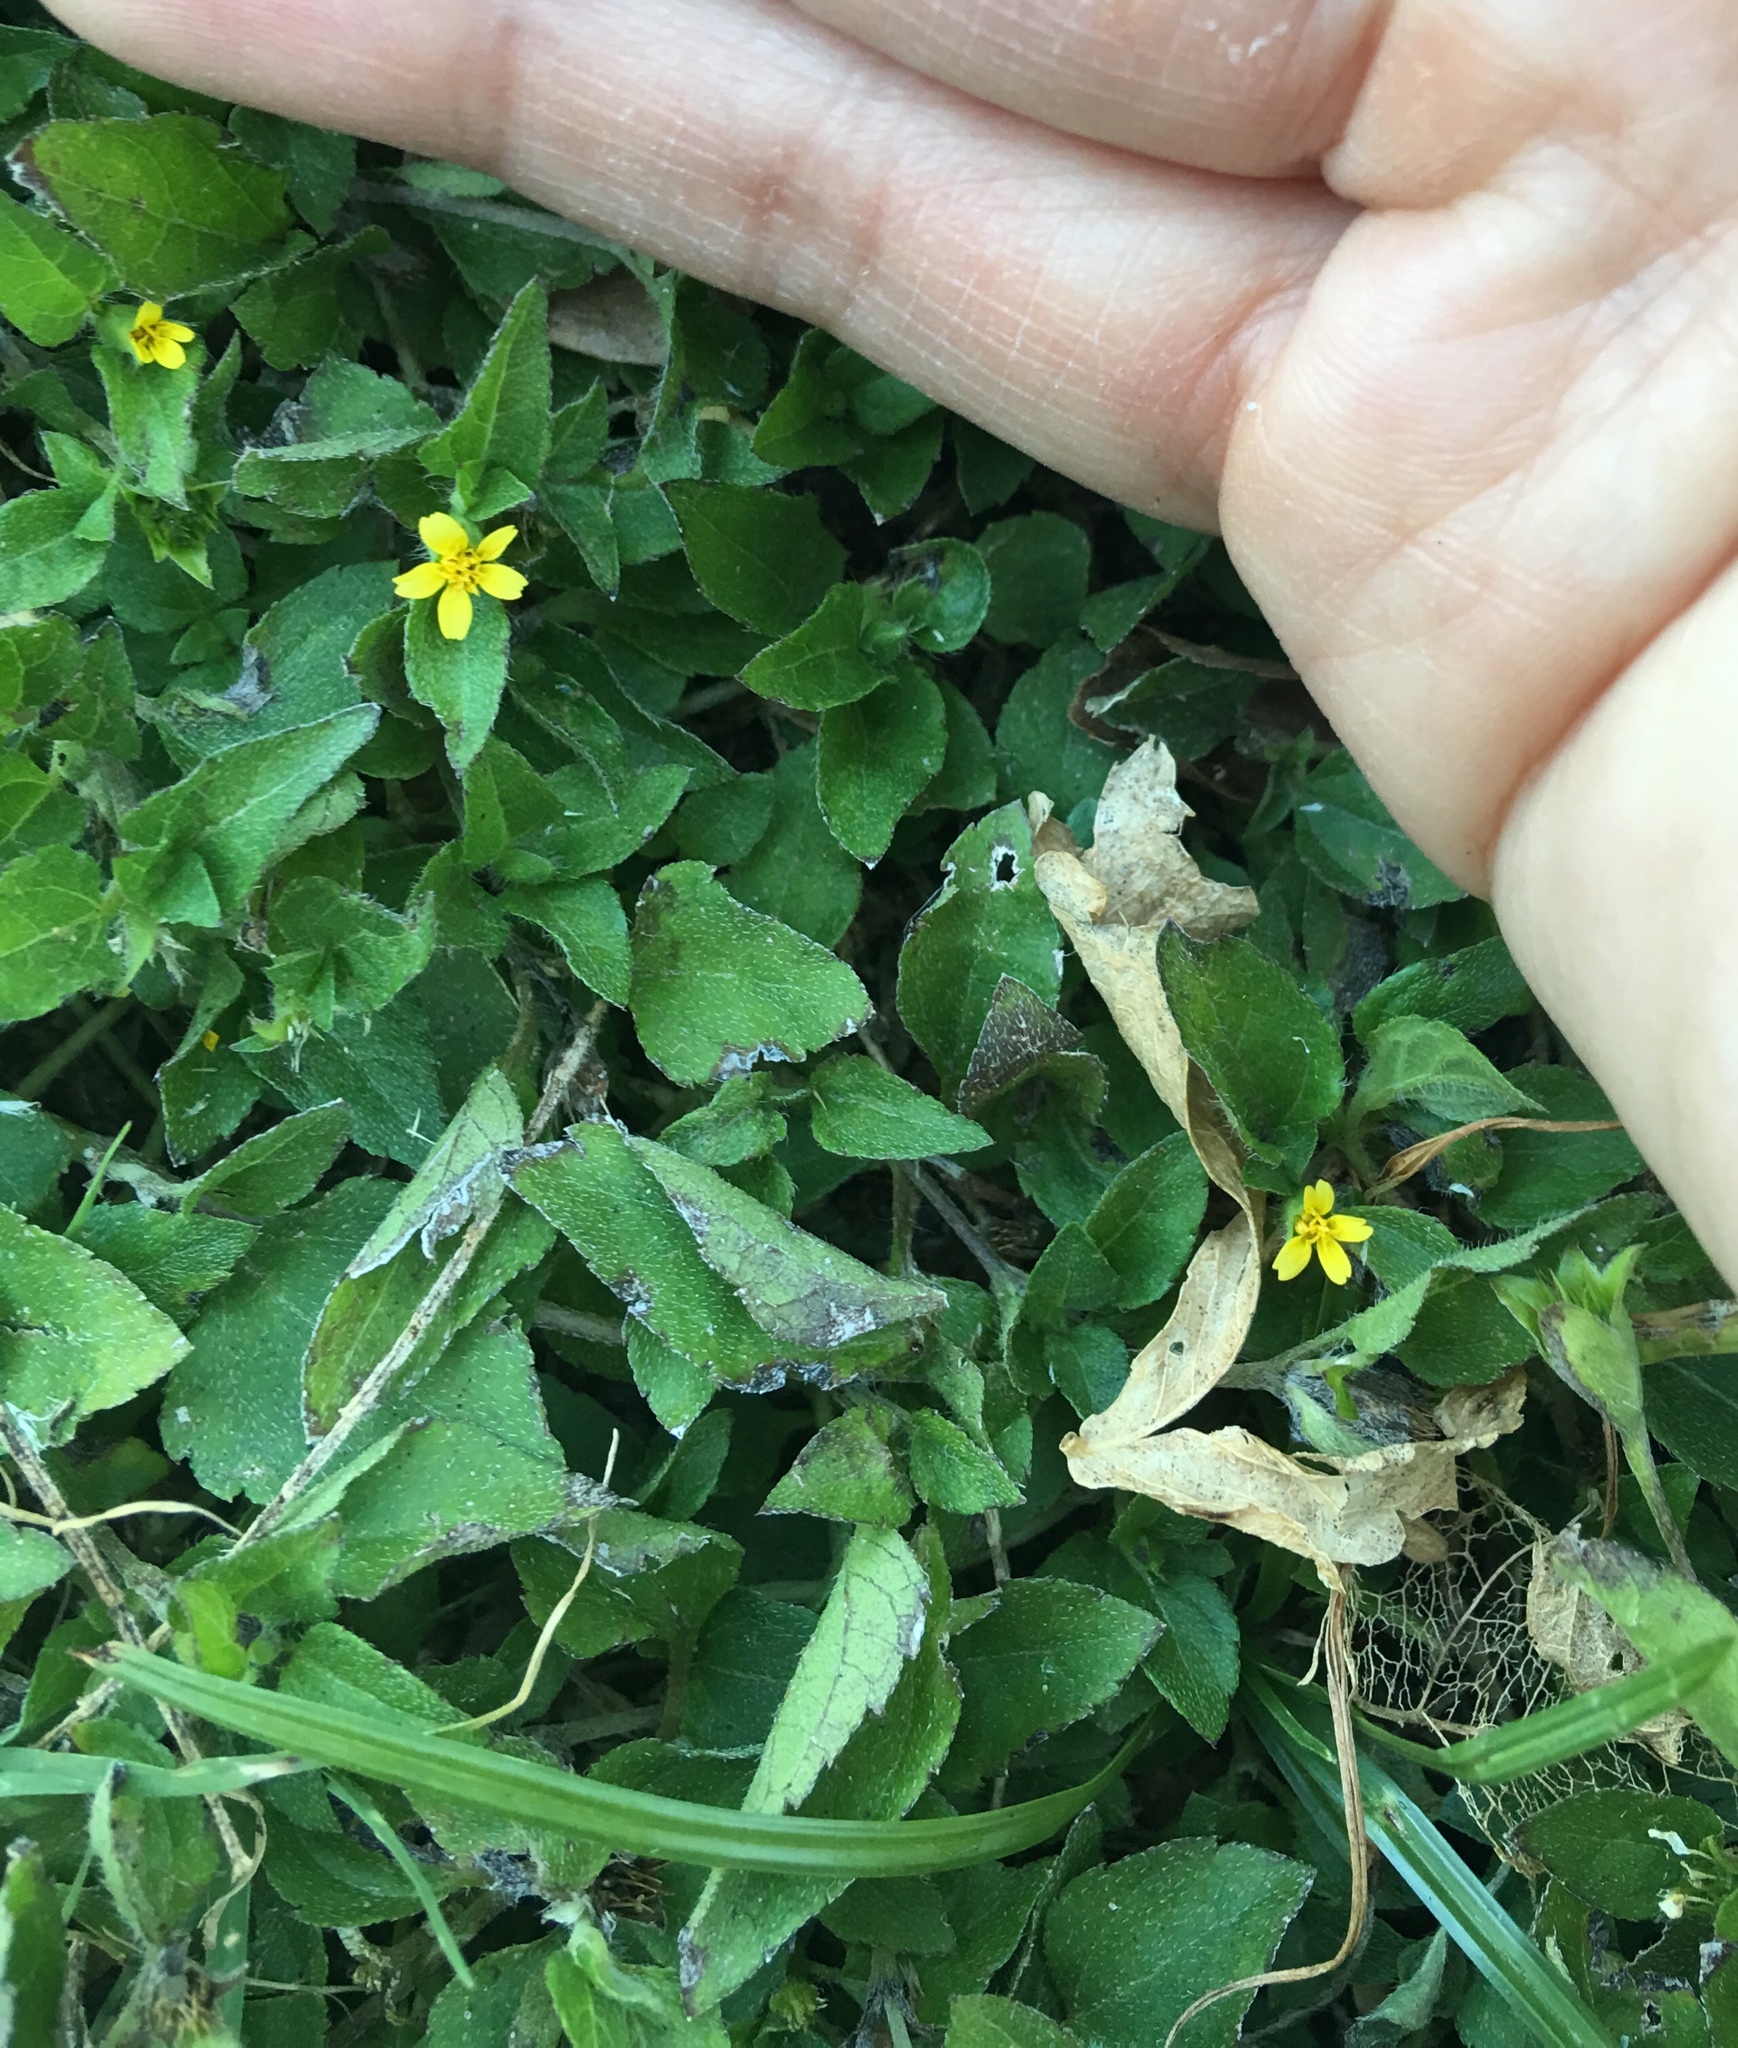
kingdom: Plantae
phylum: Tracheophyta
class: Magnoliopsida
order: Asterales
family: Asteraceae
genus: Calyptocarpus
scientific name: Calyptocarpus vialis
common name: Straggler daisy
